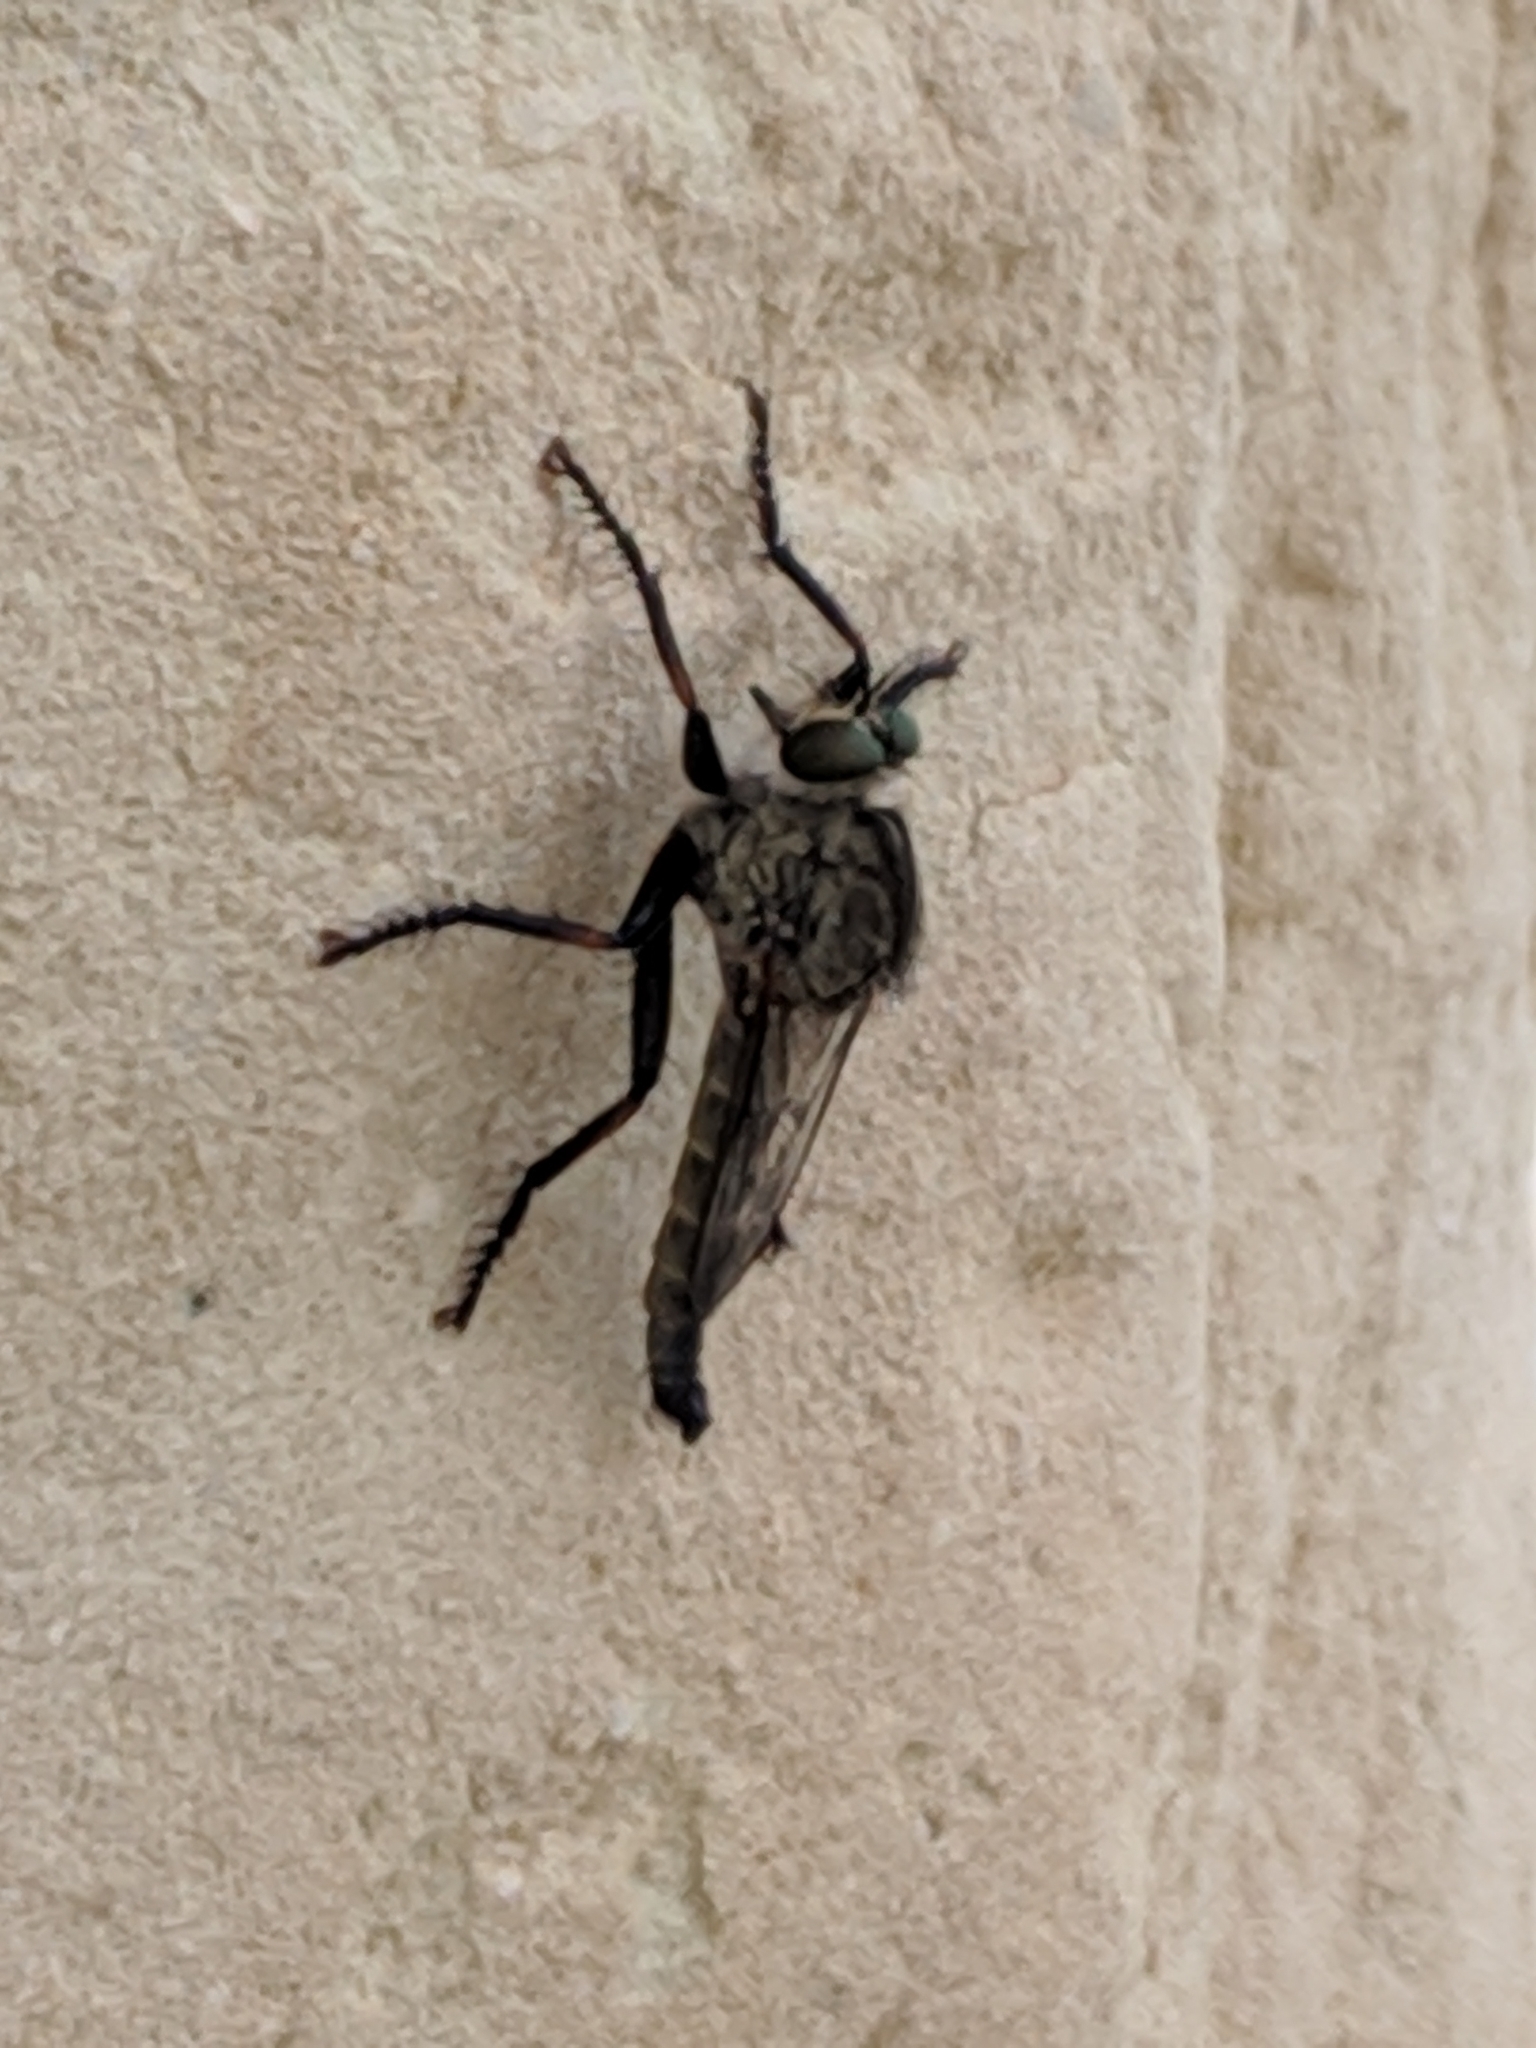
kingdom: Animalia
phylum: Arthropoda
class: Insecta
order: Diptera
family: Asilidae
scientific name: Asilidae
